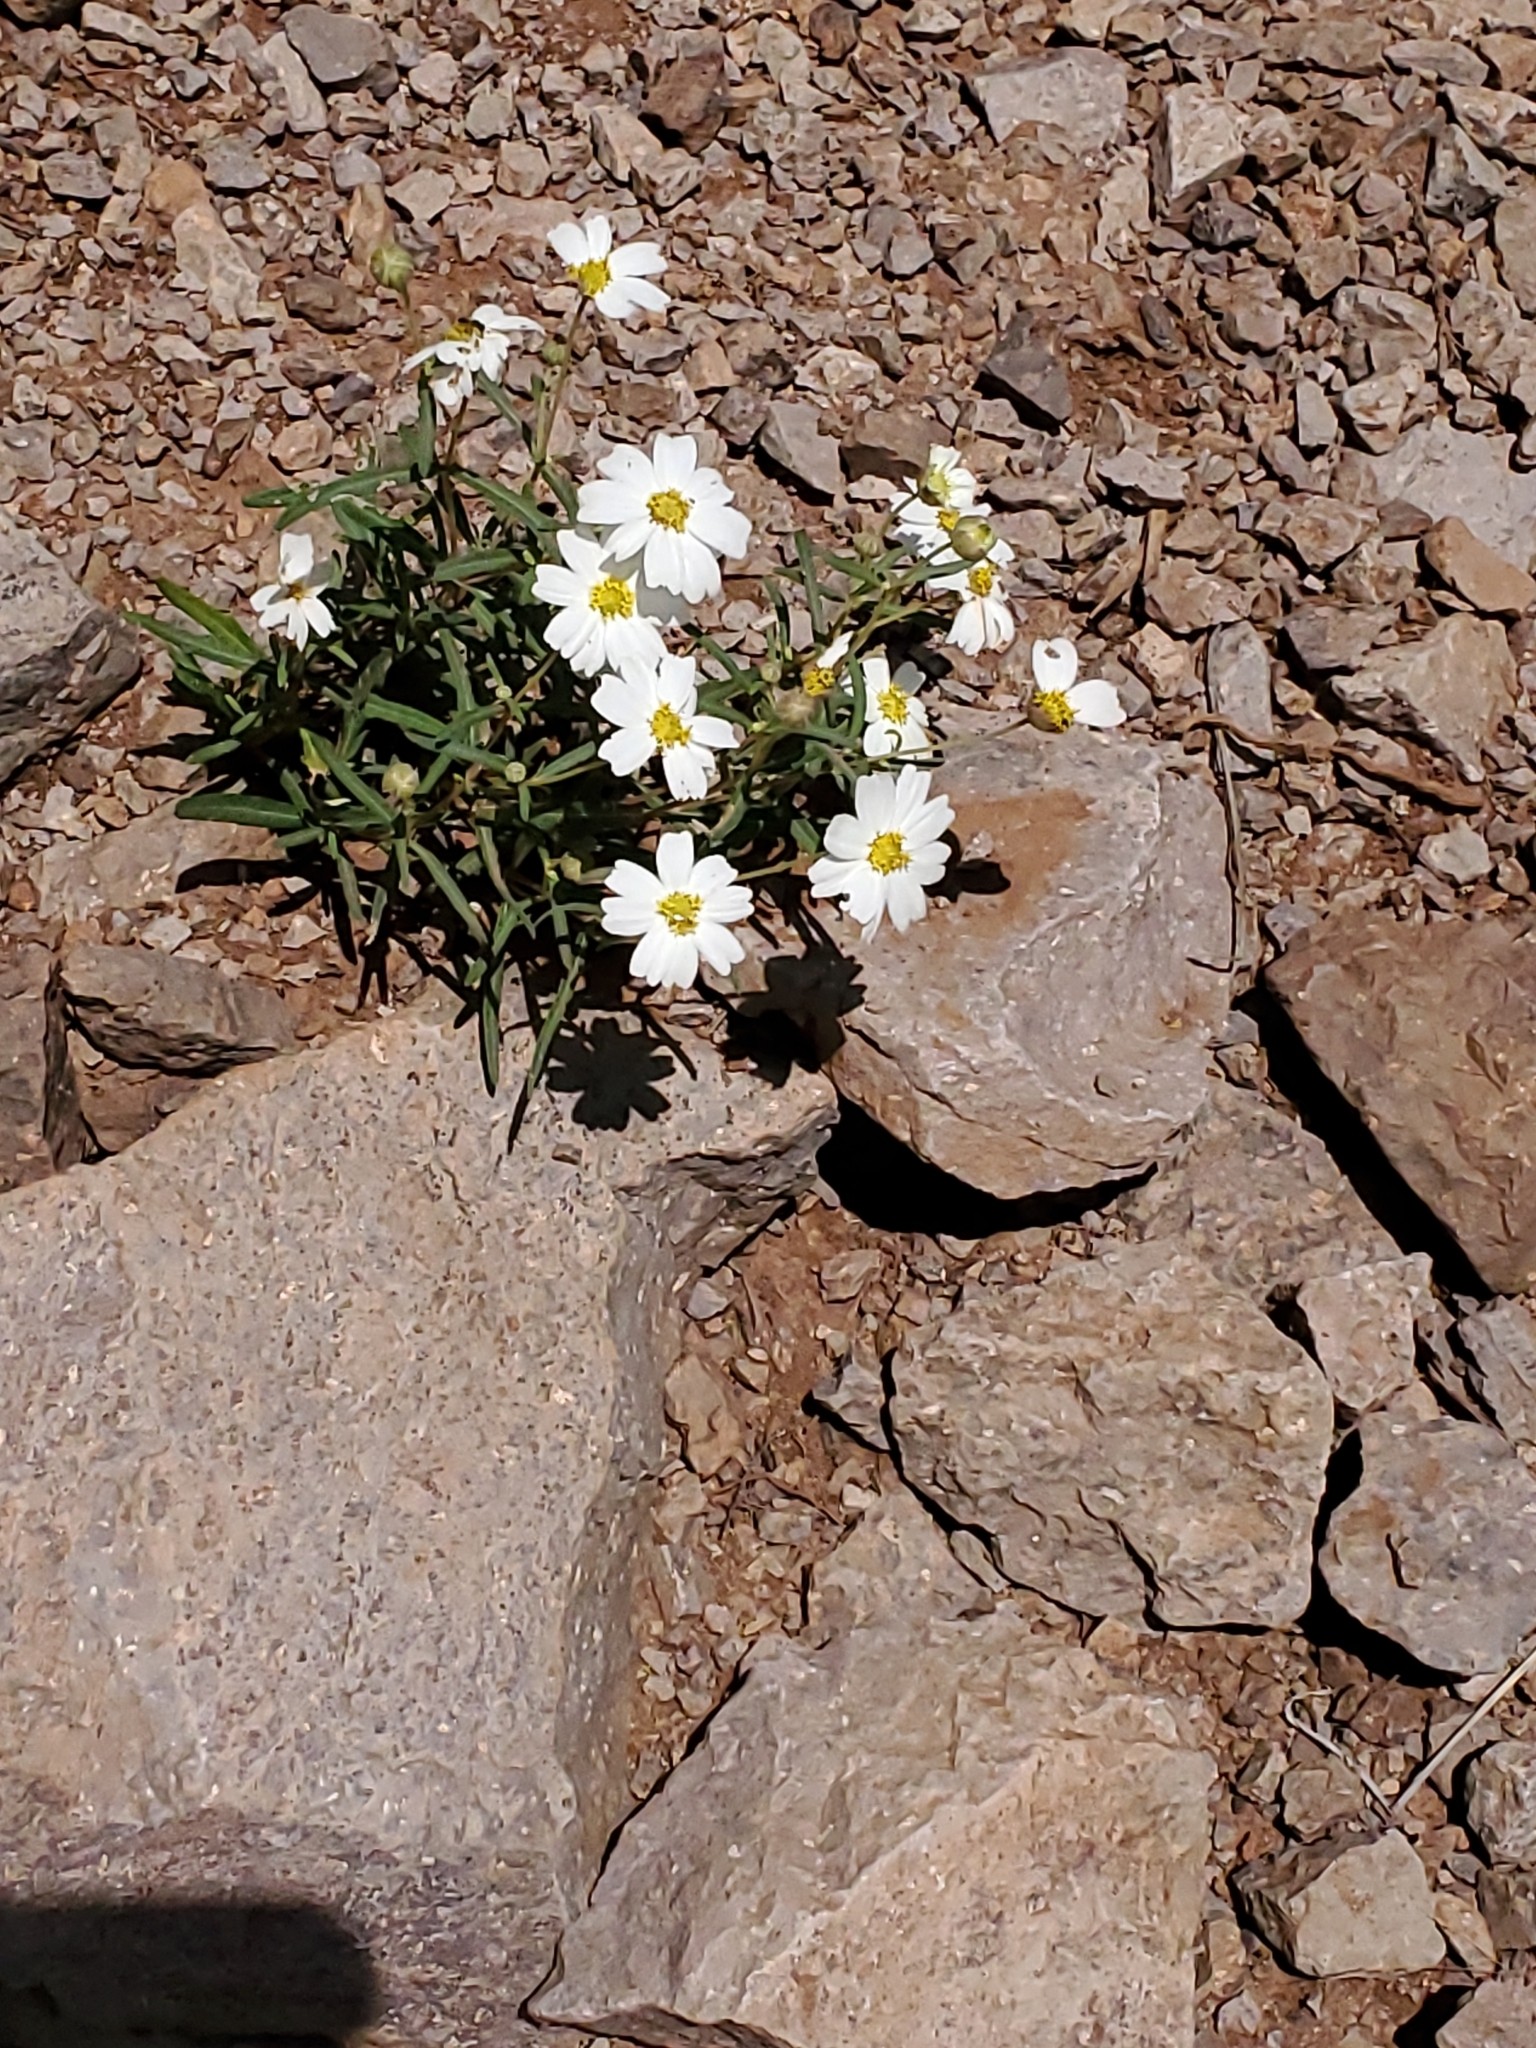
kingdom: Plantae
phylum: Tracheophyta
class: Magnoliopsida
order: Asterales
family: Asteraceae
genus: Melampodium
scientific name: Melampodium leucanthum
